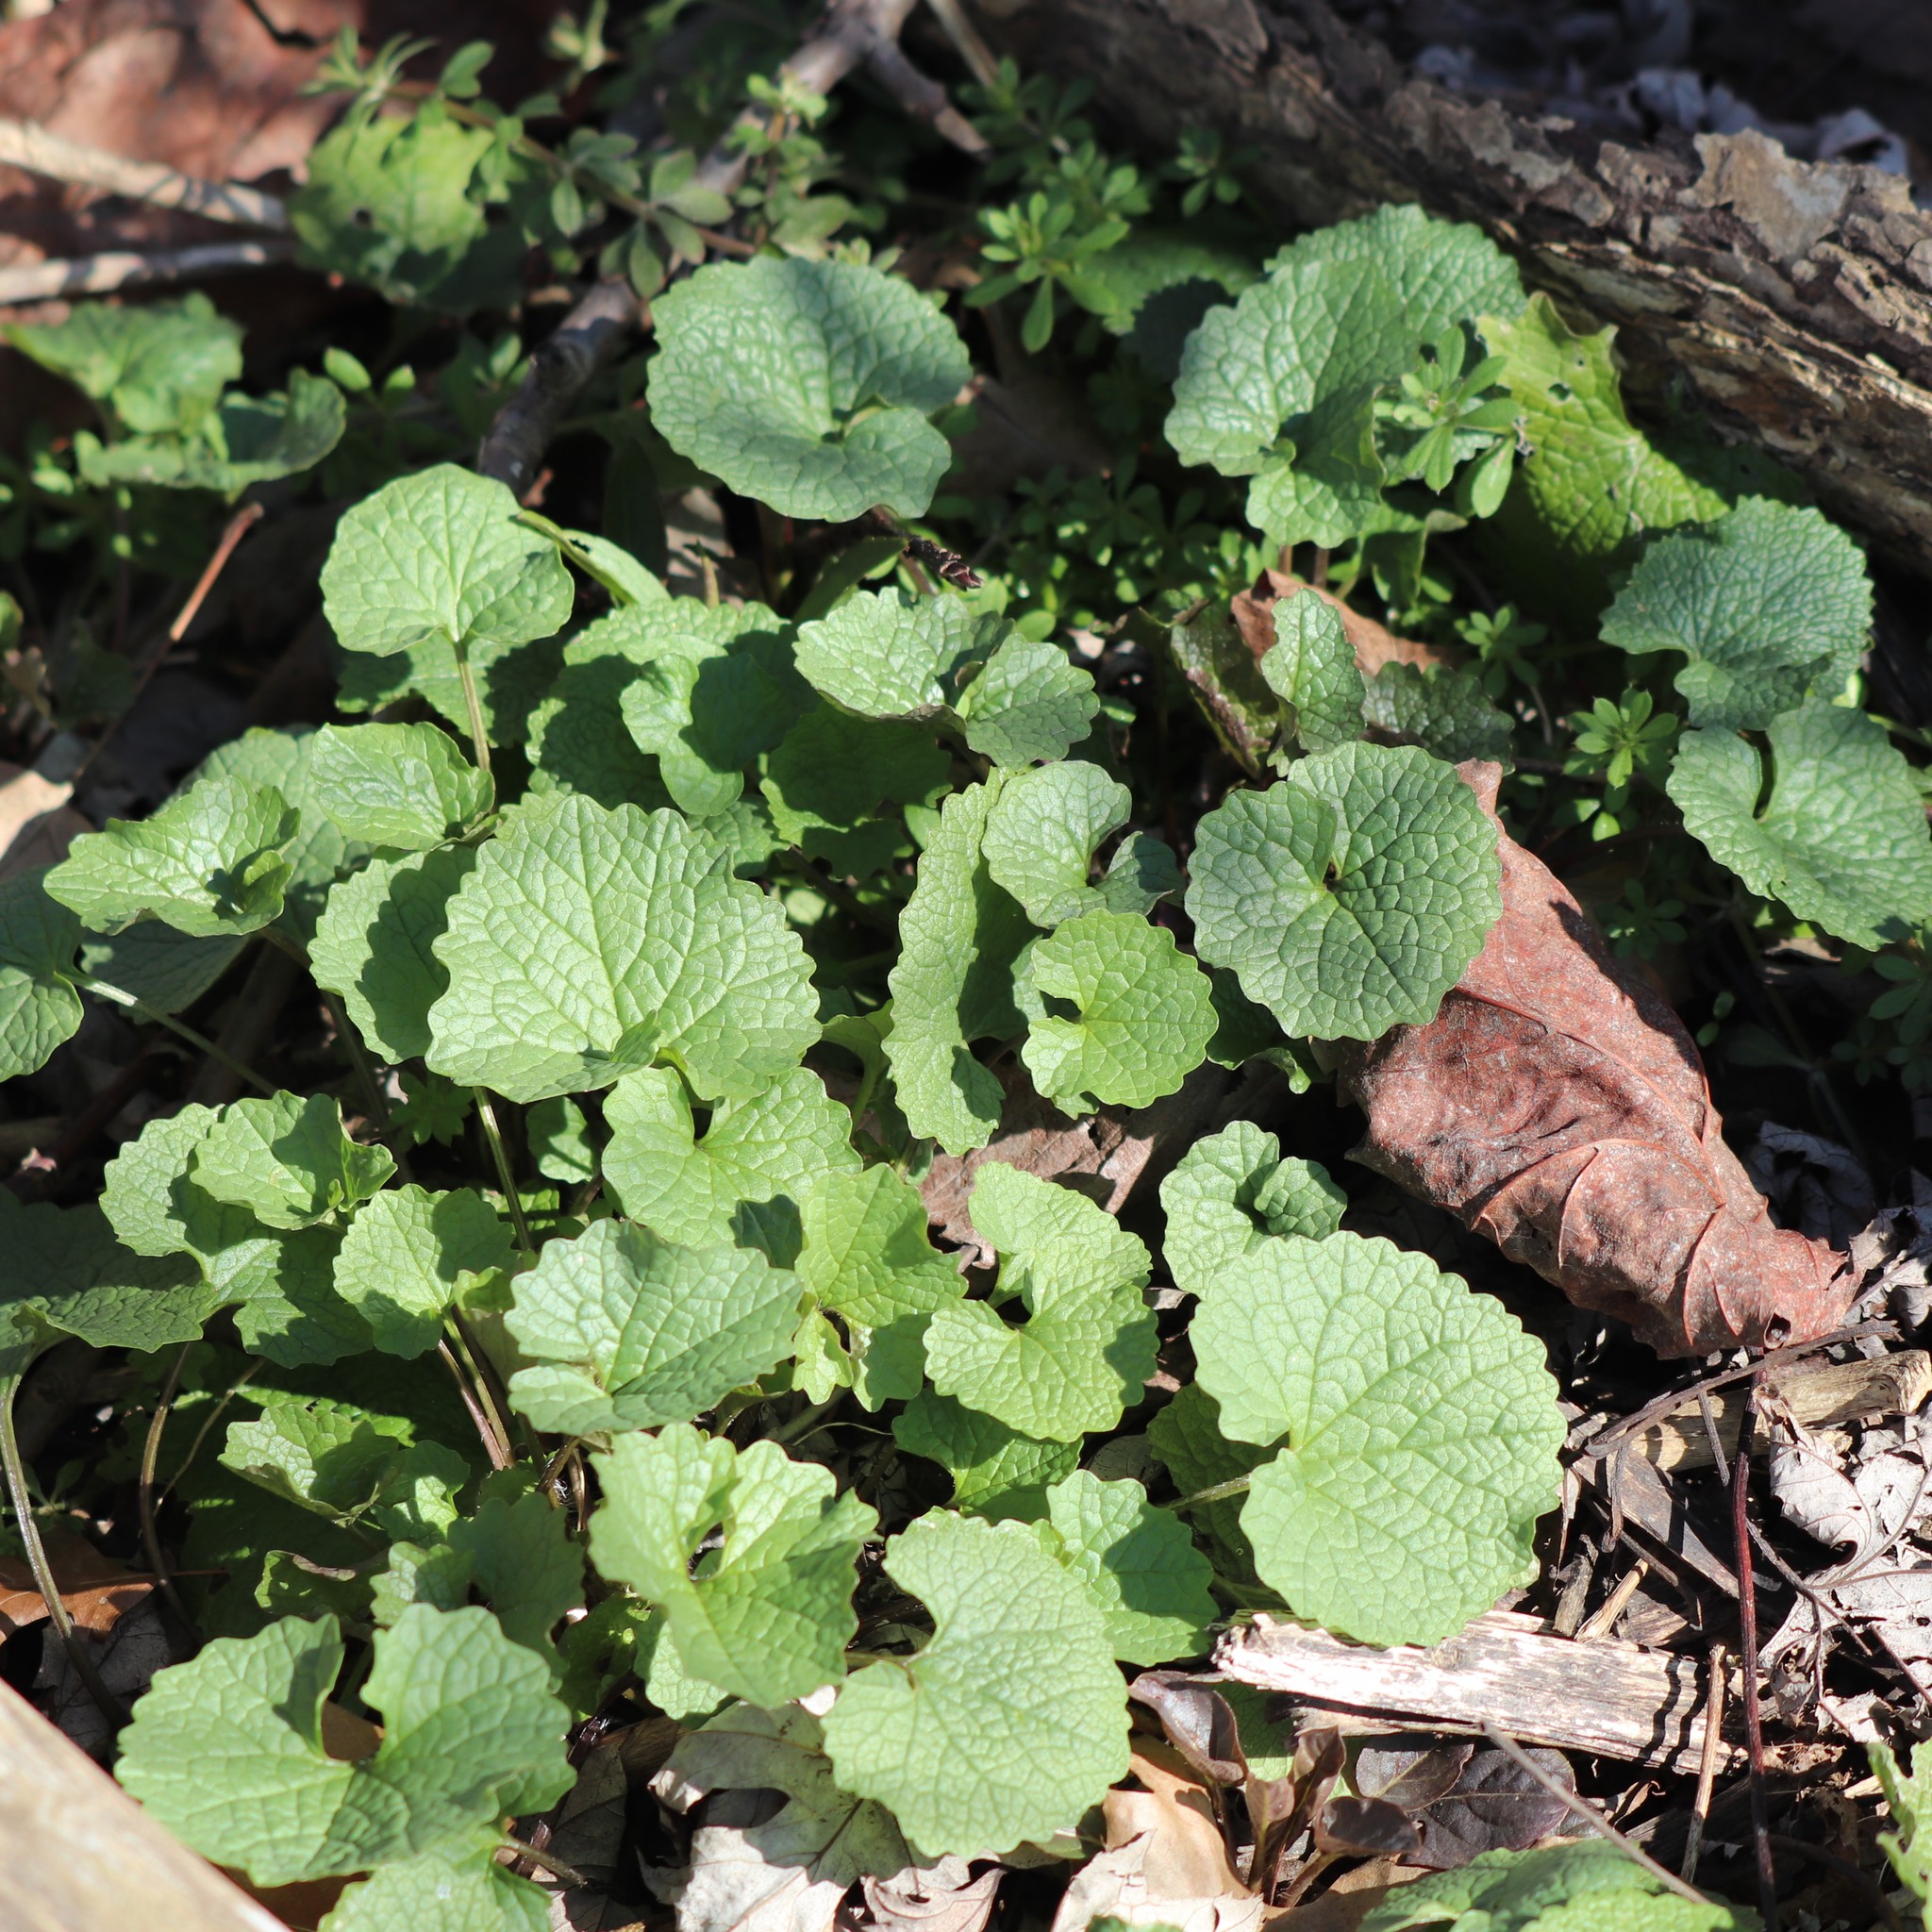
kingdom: Plantae
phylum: Tracheophyta
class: Magnoliopsida
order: Brassicales
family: Brassicaceae
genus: Alliaria
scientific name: Alliaria petiolata
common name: Garlic mustard
